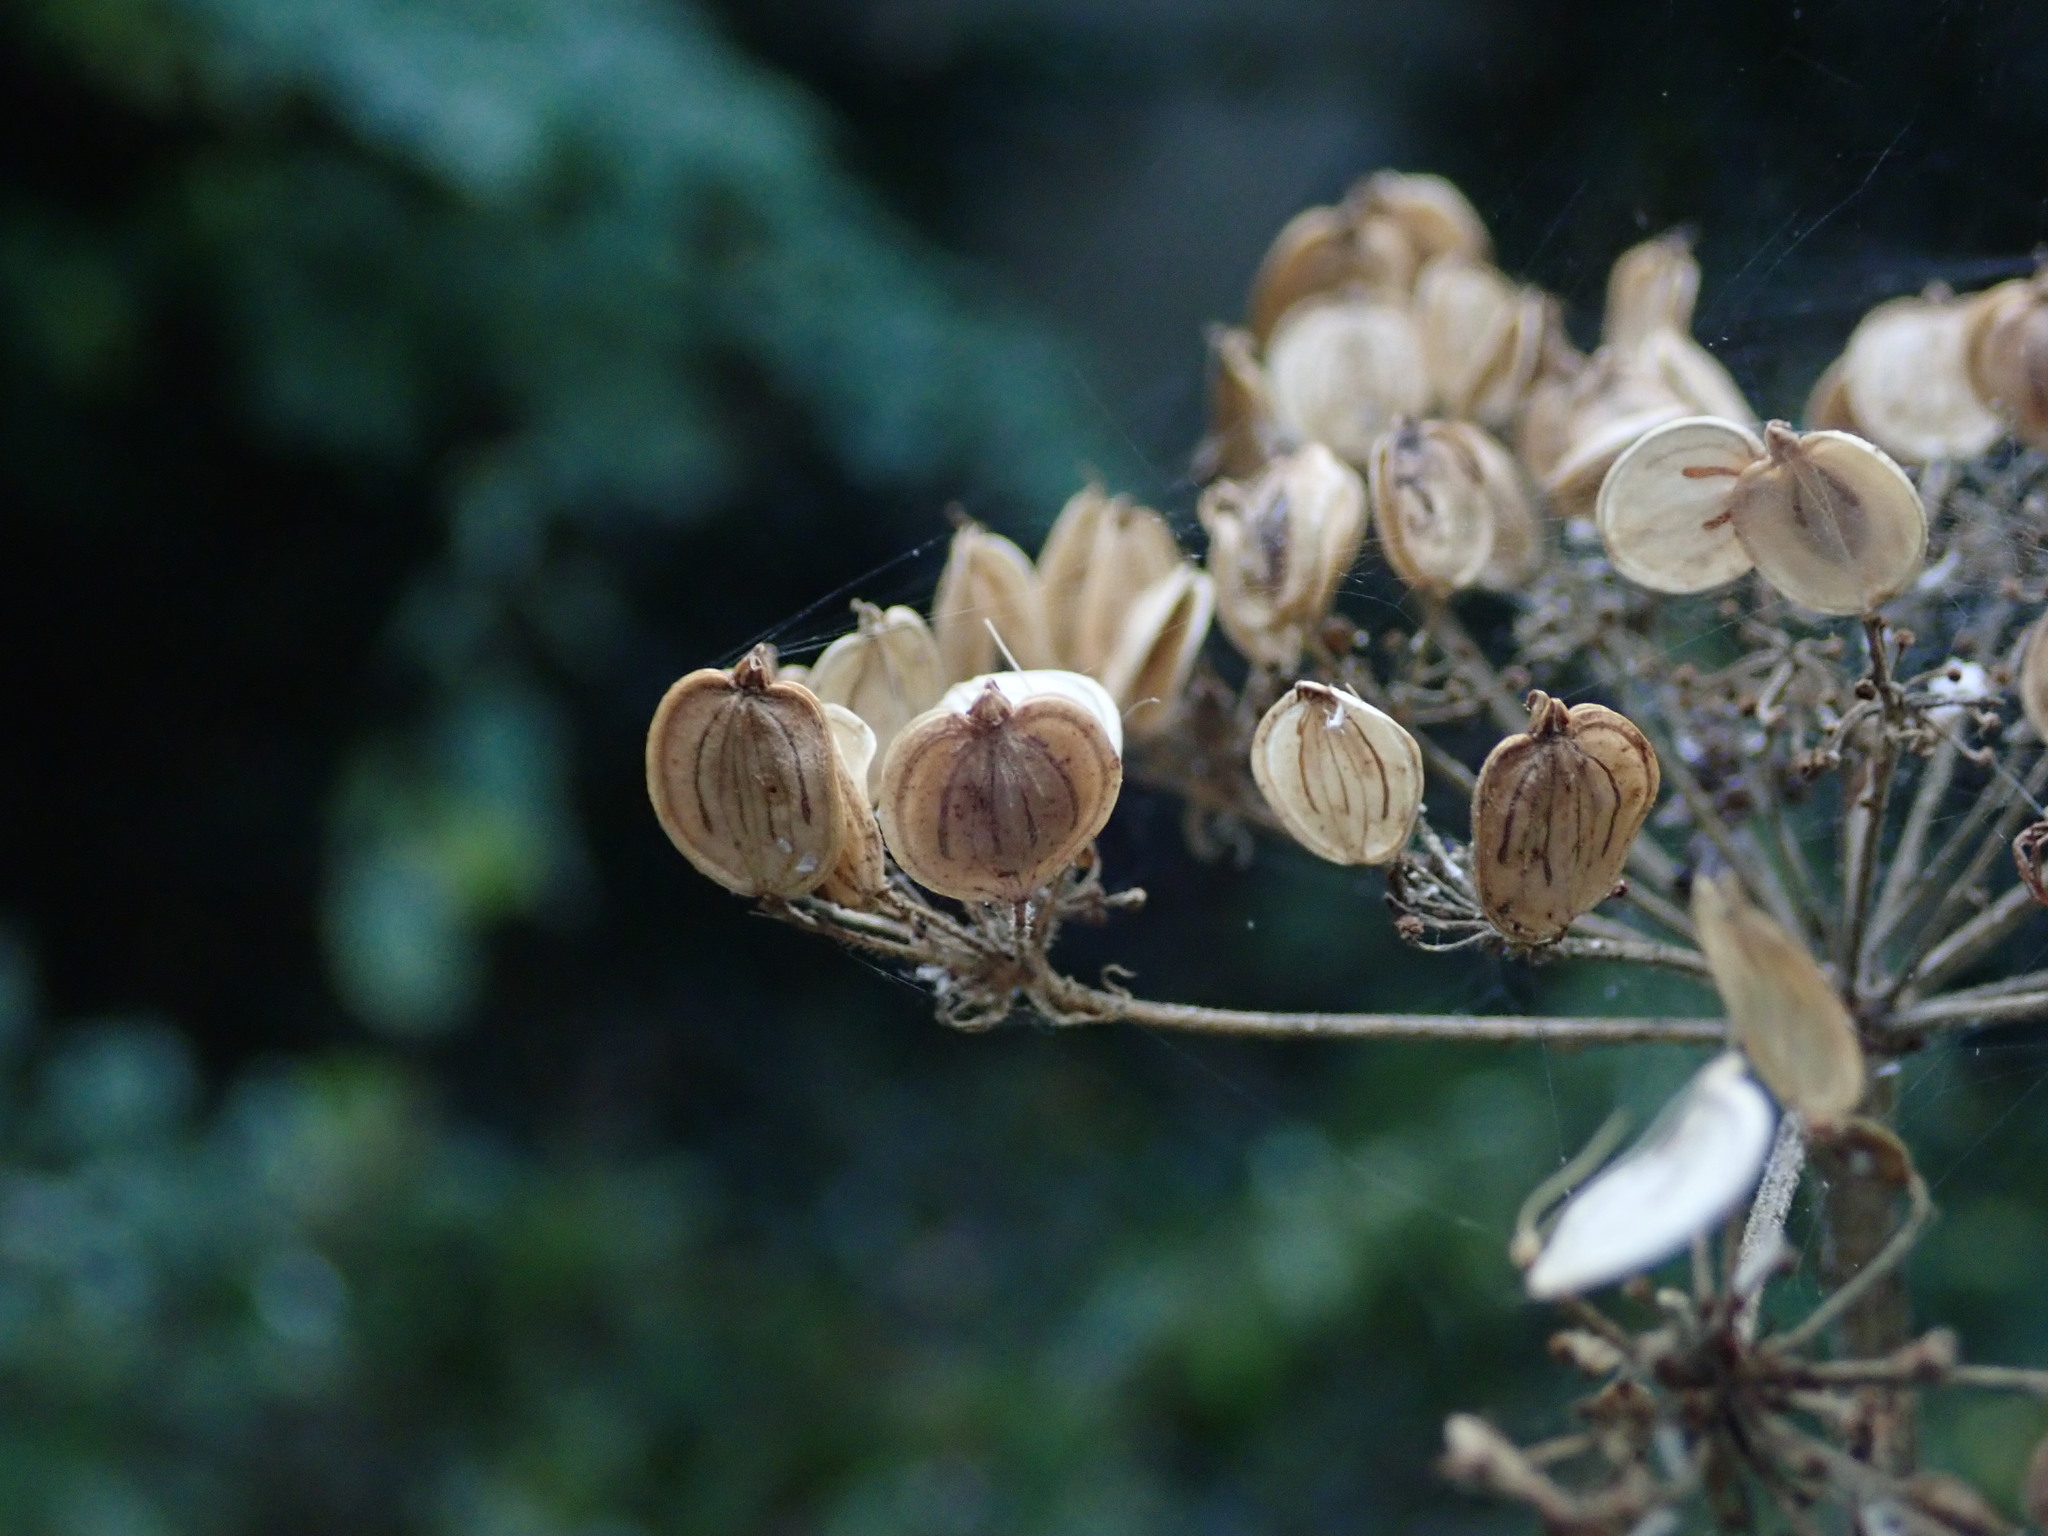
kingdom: Plantae
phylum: Tracheophyta
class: Magnoliopsida
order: Apiales
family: Apiaceae
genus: Heracleum
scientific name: Heracleum sphondylium
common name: Hogweed
